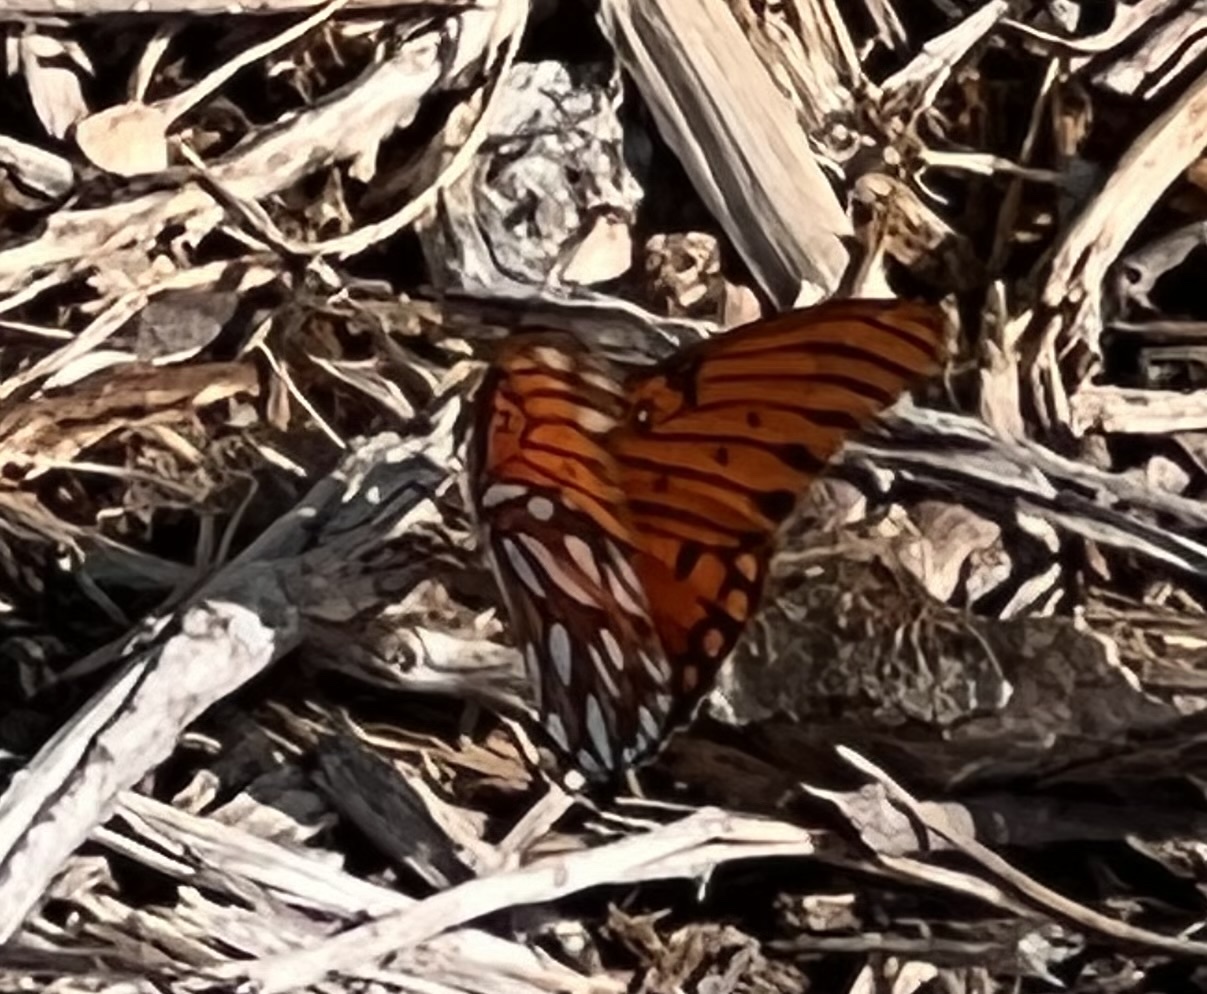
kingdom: Animalia
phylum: Arthropoda
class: Insecta
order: Lepidoptera
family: Nymphalidae
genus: Dione
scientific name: Dione vanillae
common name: Gulf fritillary
